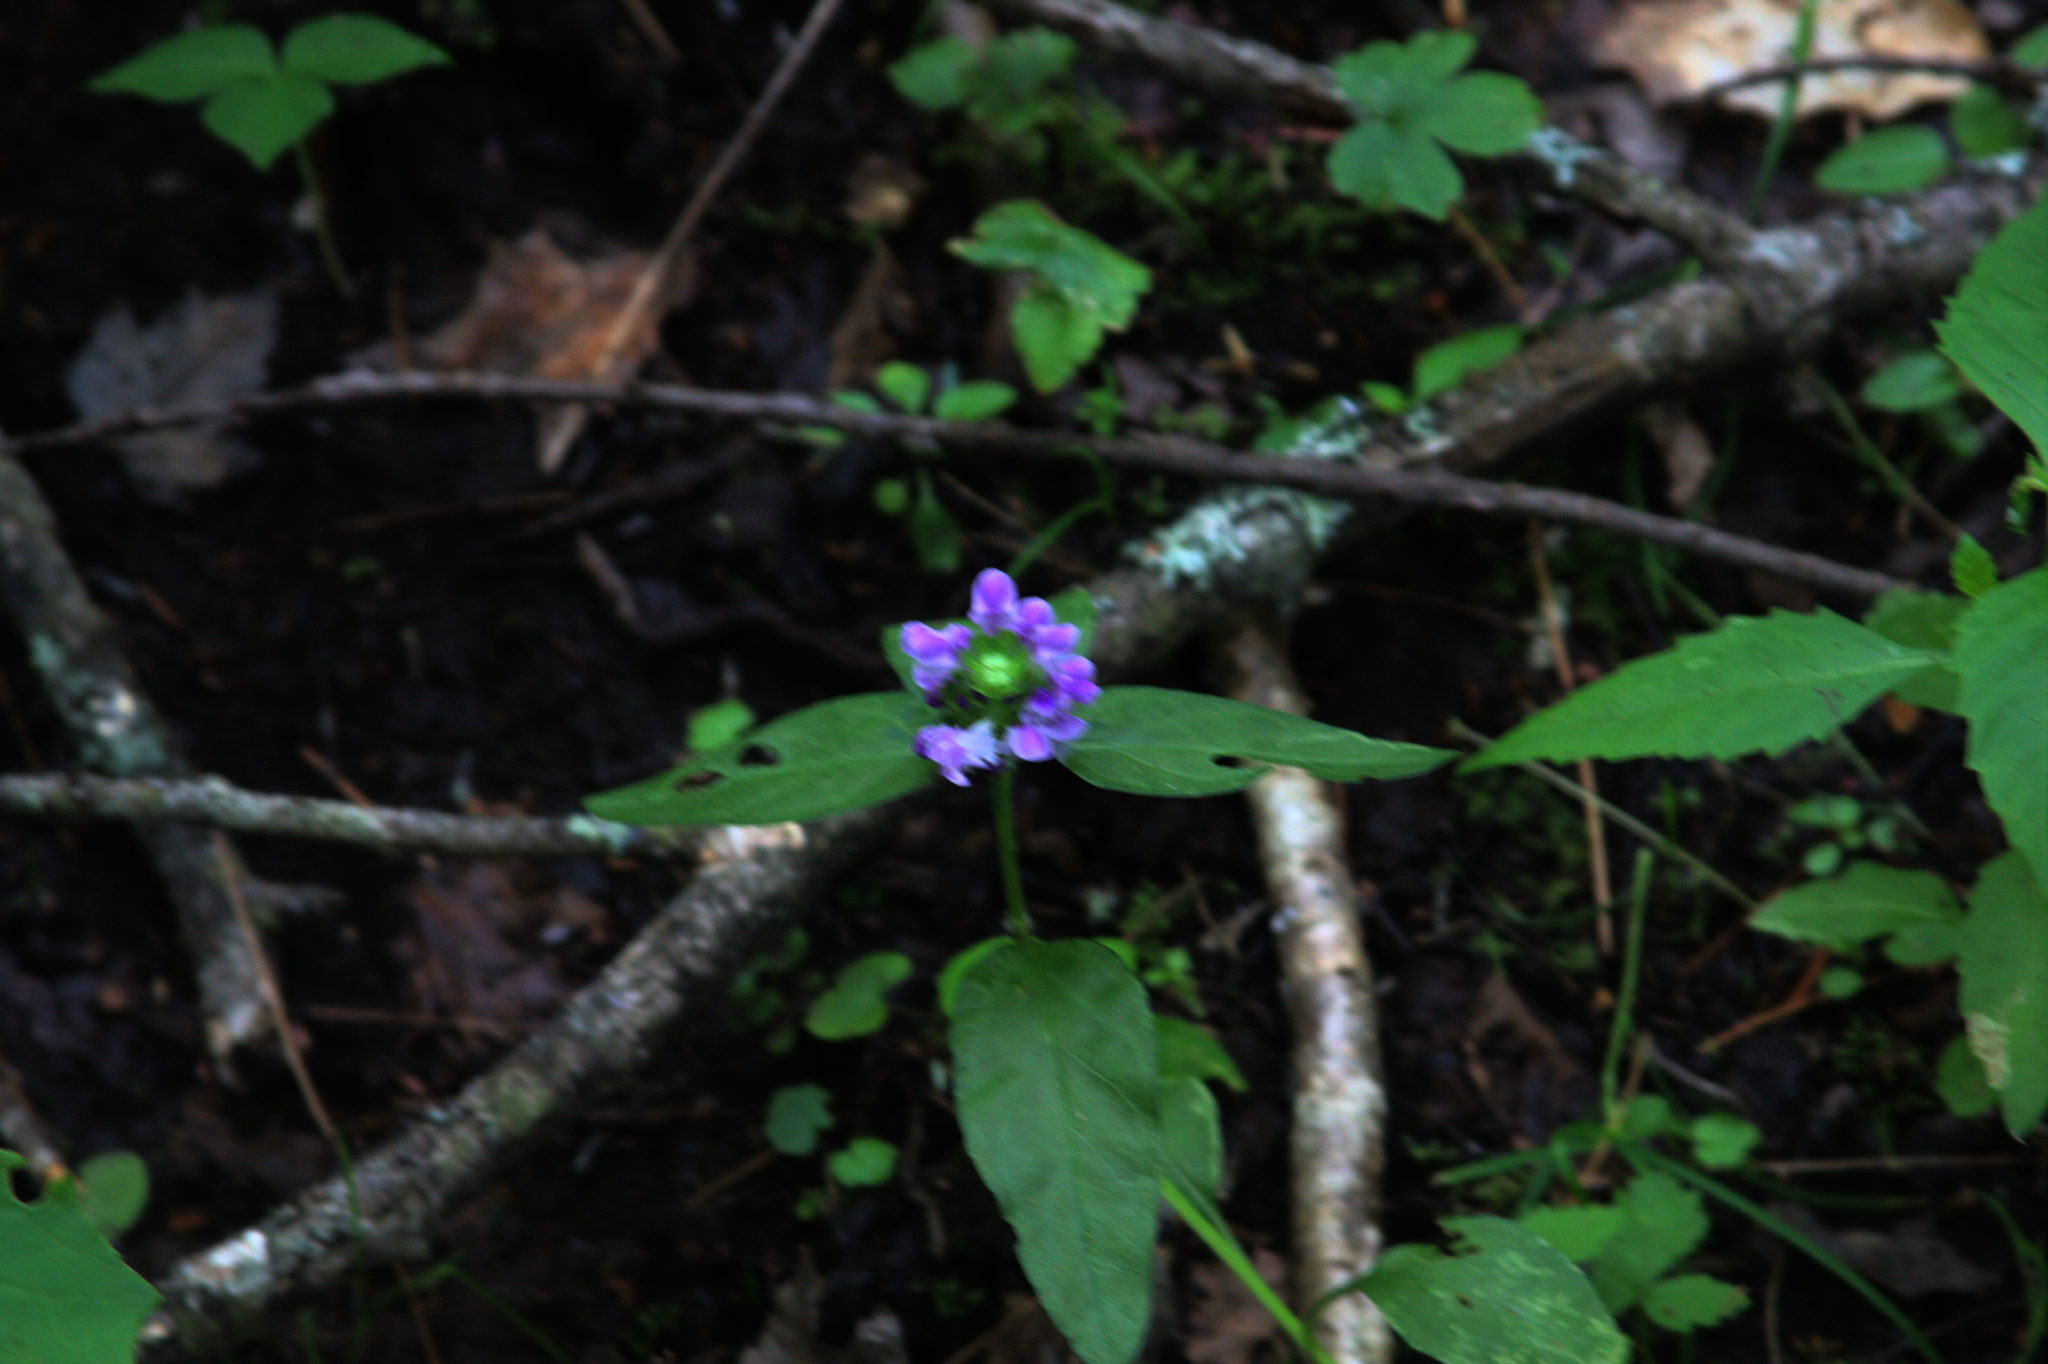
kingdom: Plantae
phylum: Tracheophyta
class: Magnoliopsida
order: Lamiales
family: Lamiaceae
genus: Prunella
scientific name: Prunella vulgaris
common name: Heal-all
